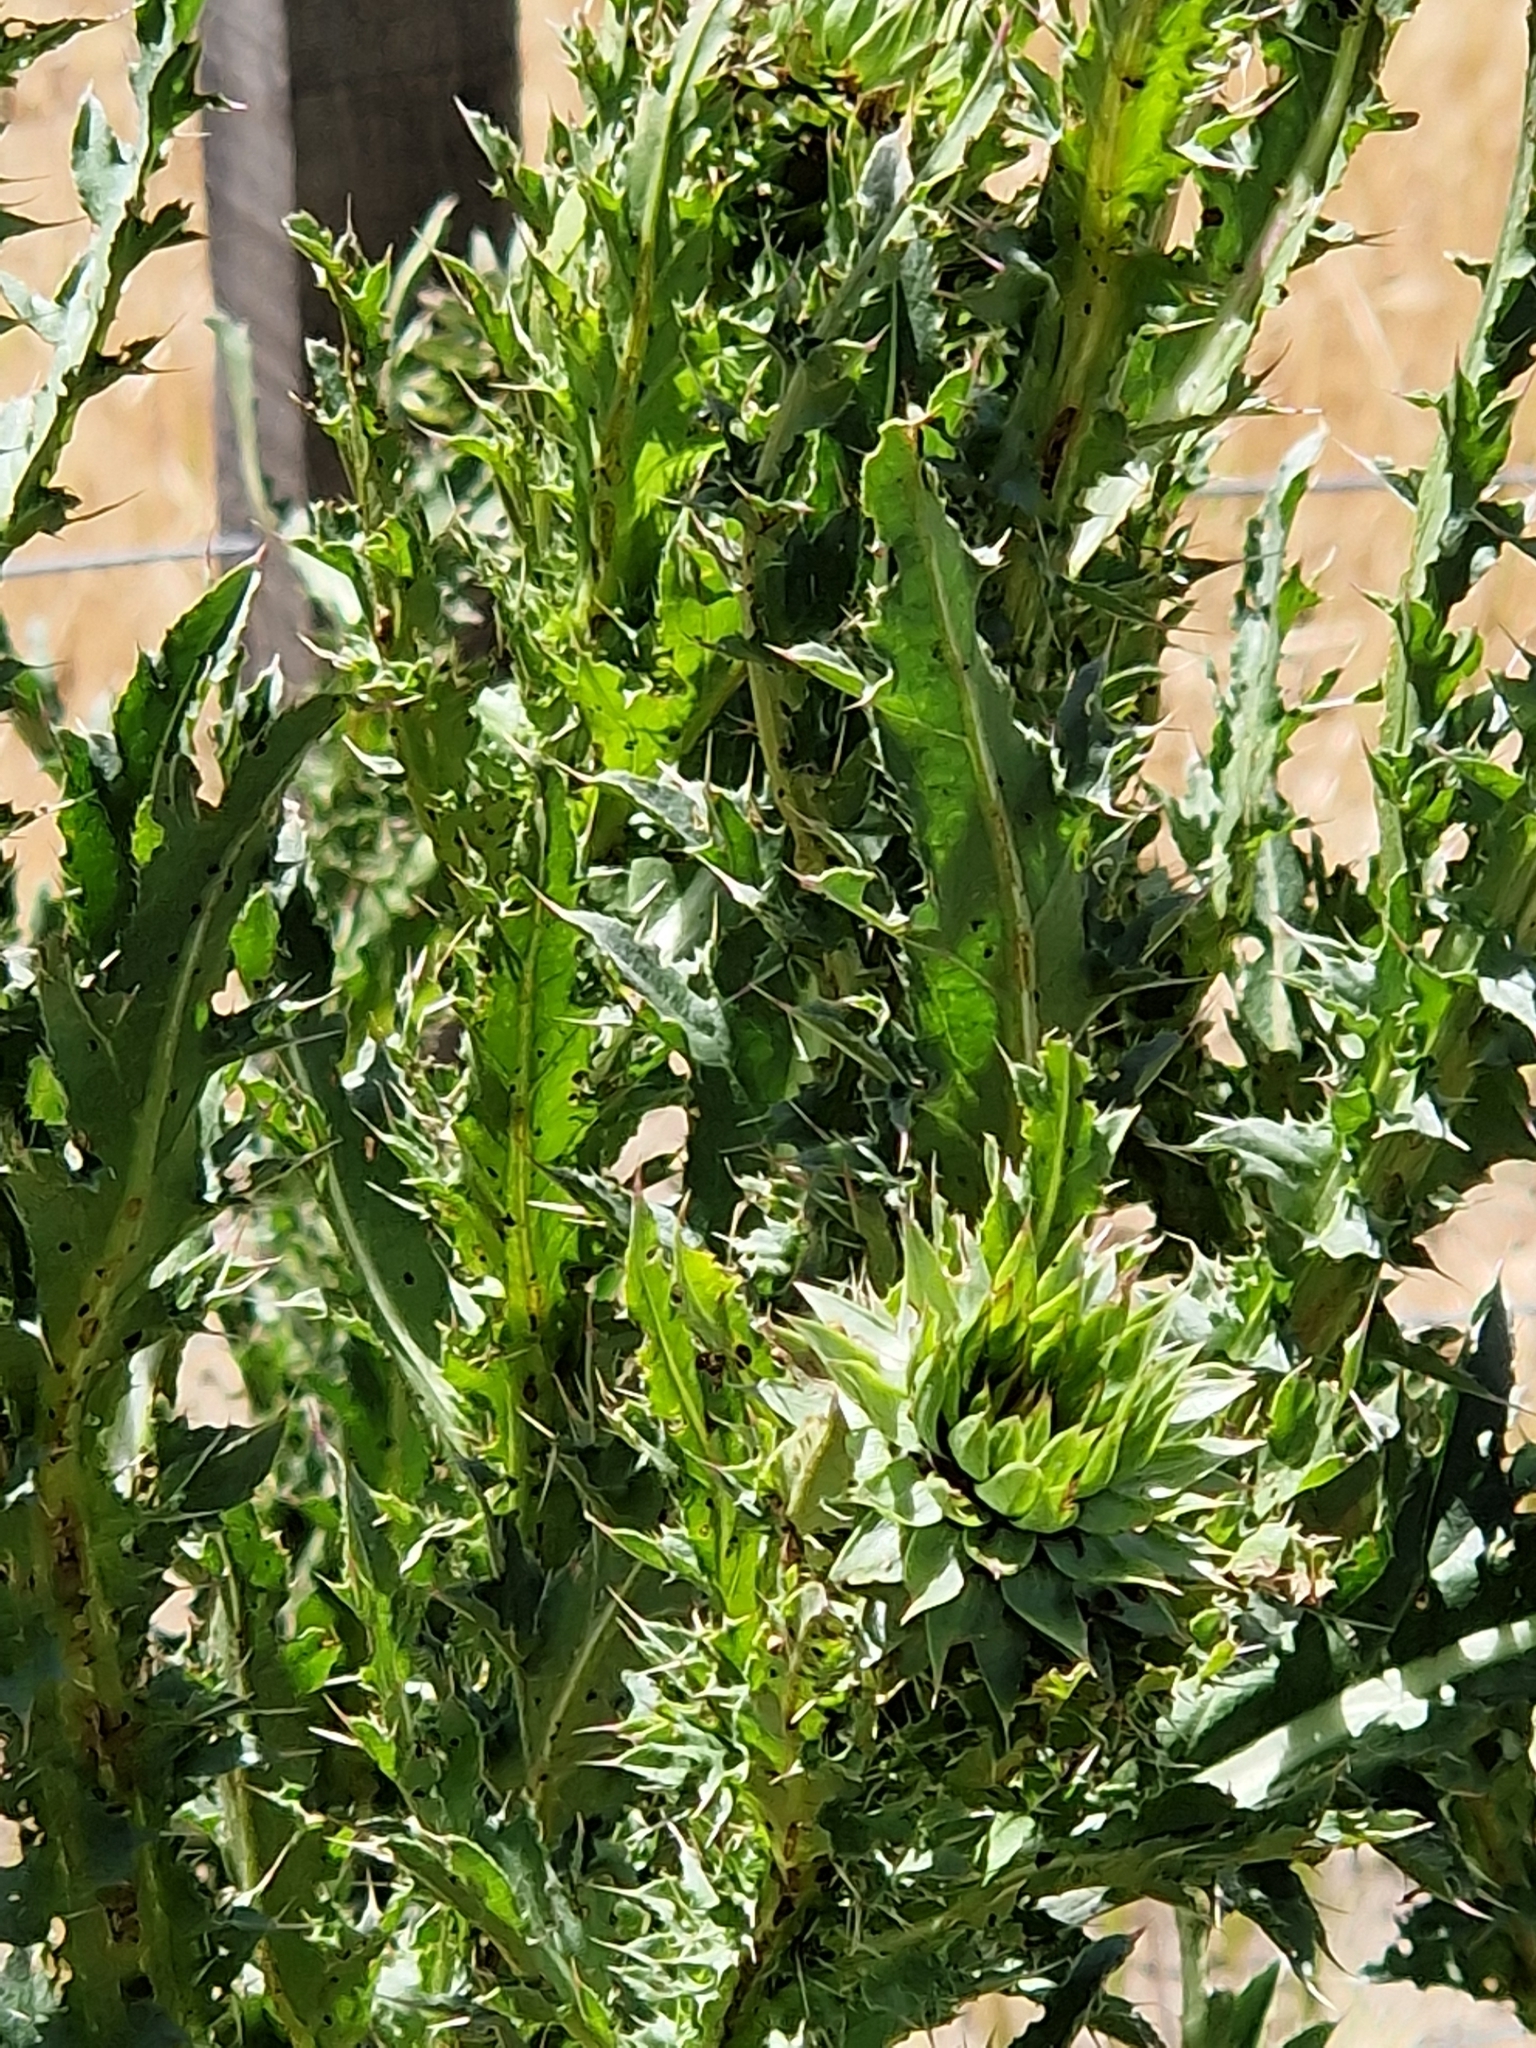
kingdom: Plantae
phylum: Tracheophyta
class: Magnoliopsida
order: Asterales
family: Asteraceae
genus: Carduus
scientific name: Carduus nutans
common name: Musk thistle
